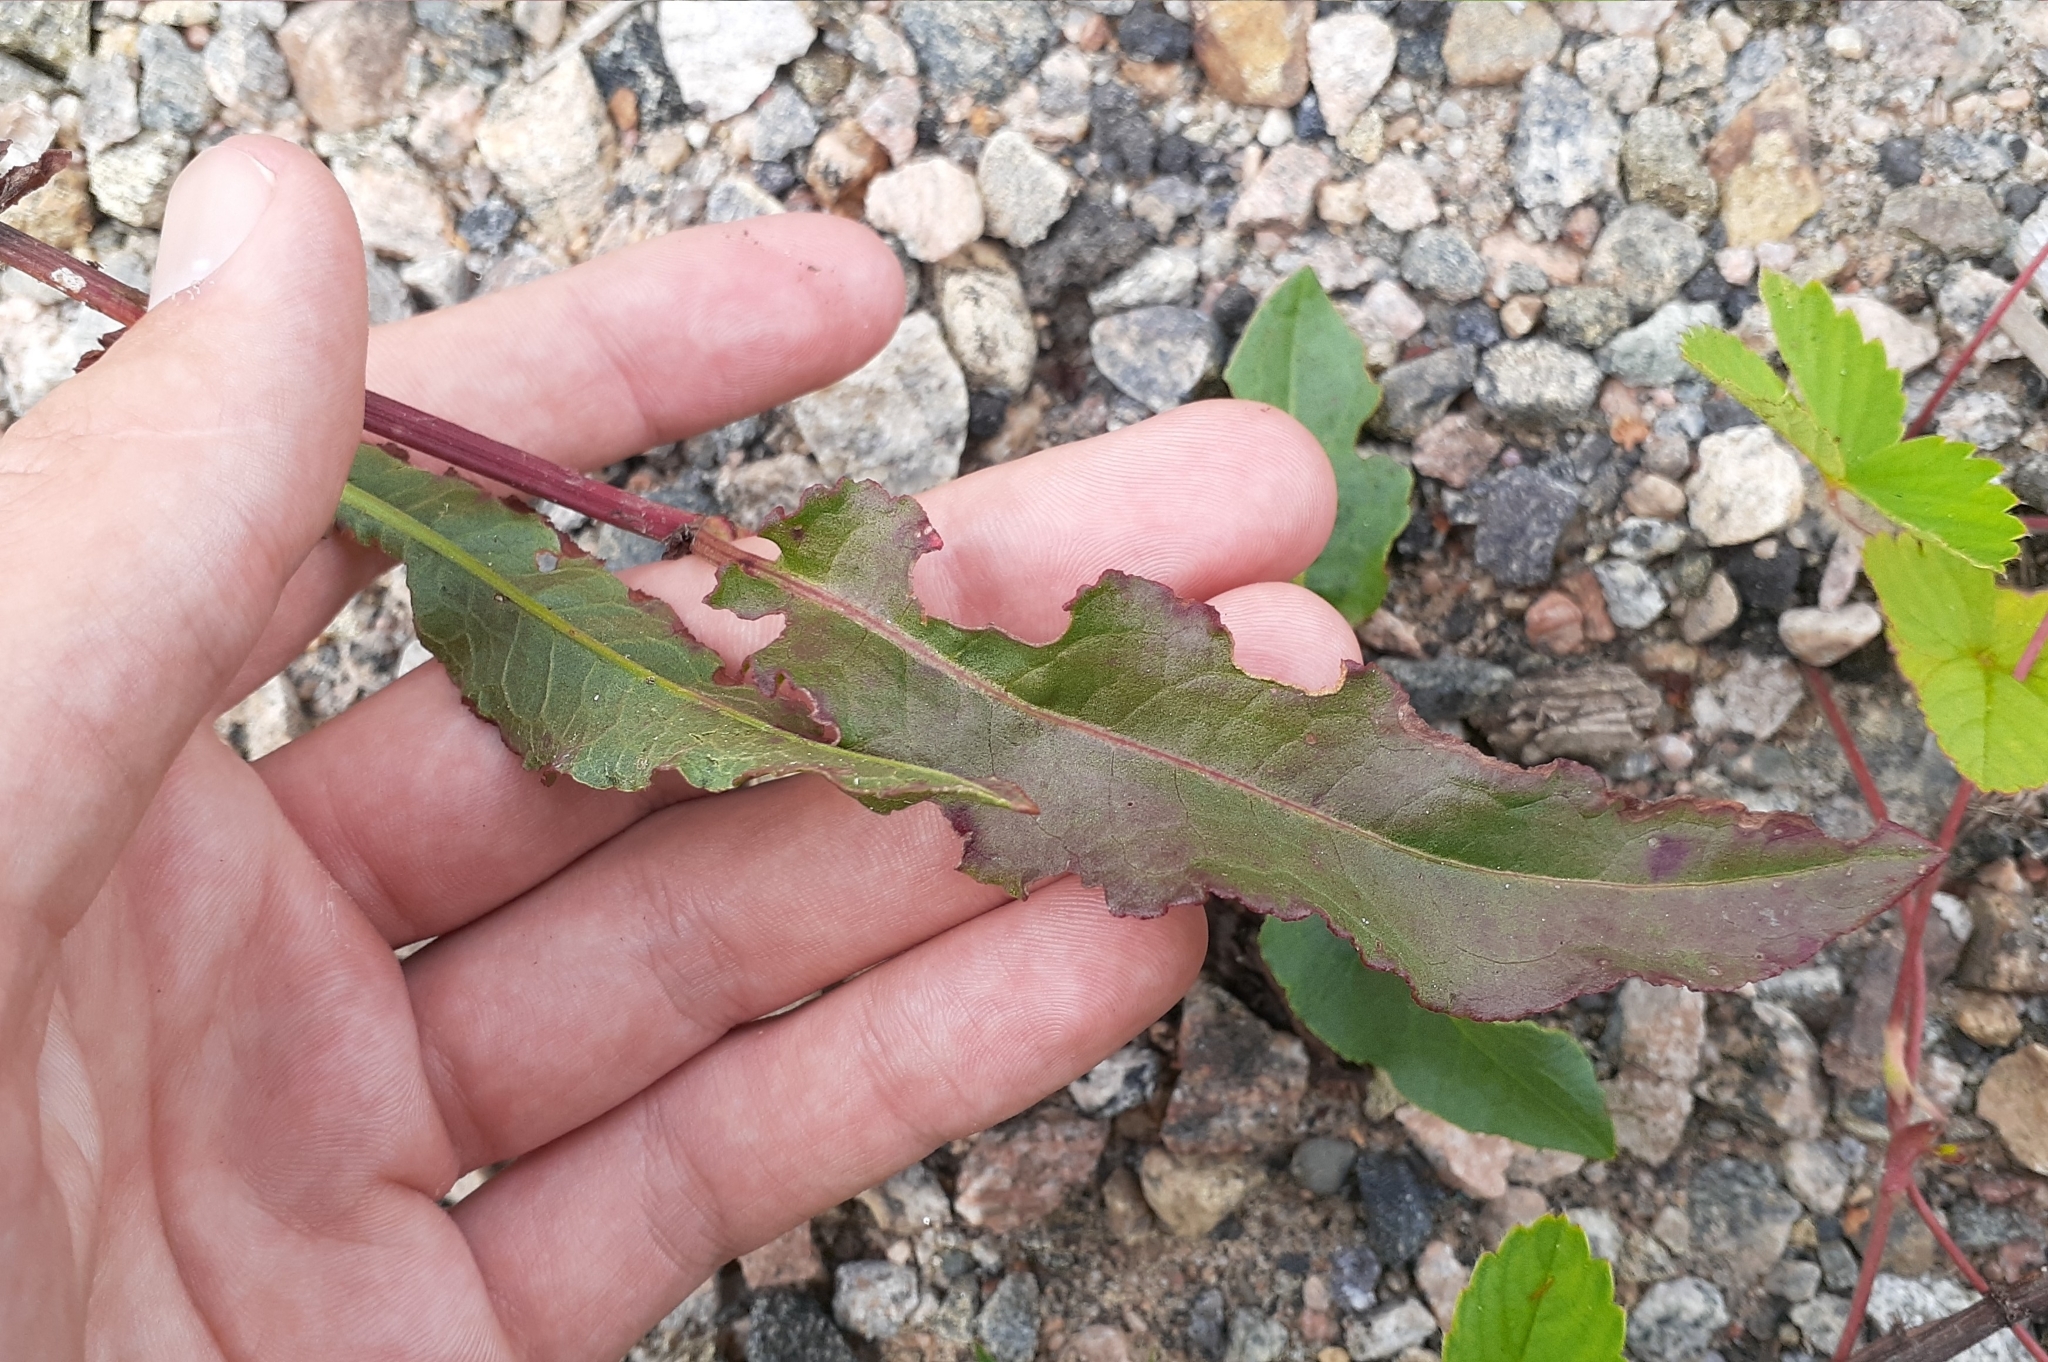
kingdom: Plantae
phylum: Tracheophyta
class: Magnoliopsida
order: Caryophyllales
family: Polygonaceae
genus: Rumex
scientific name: Rumex crispus
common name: Curled dock
